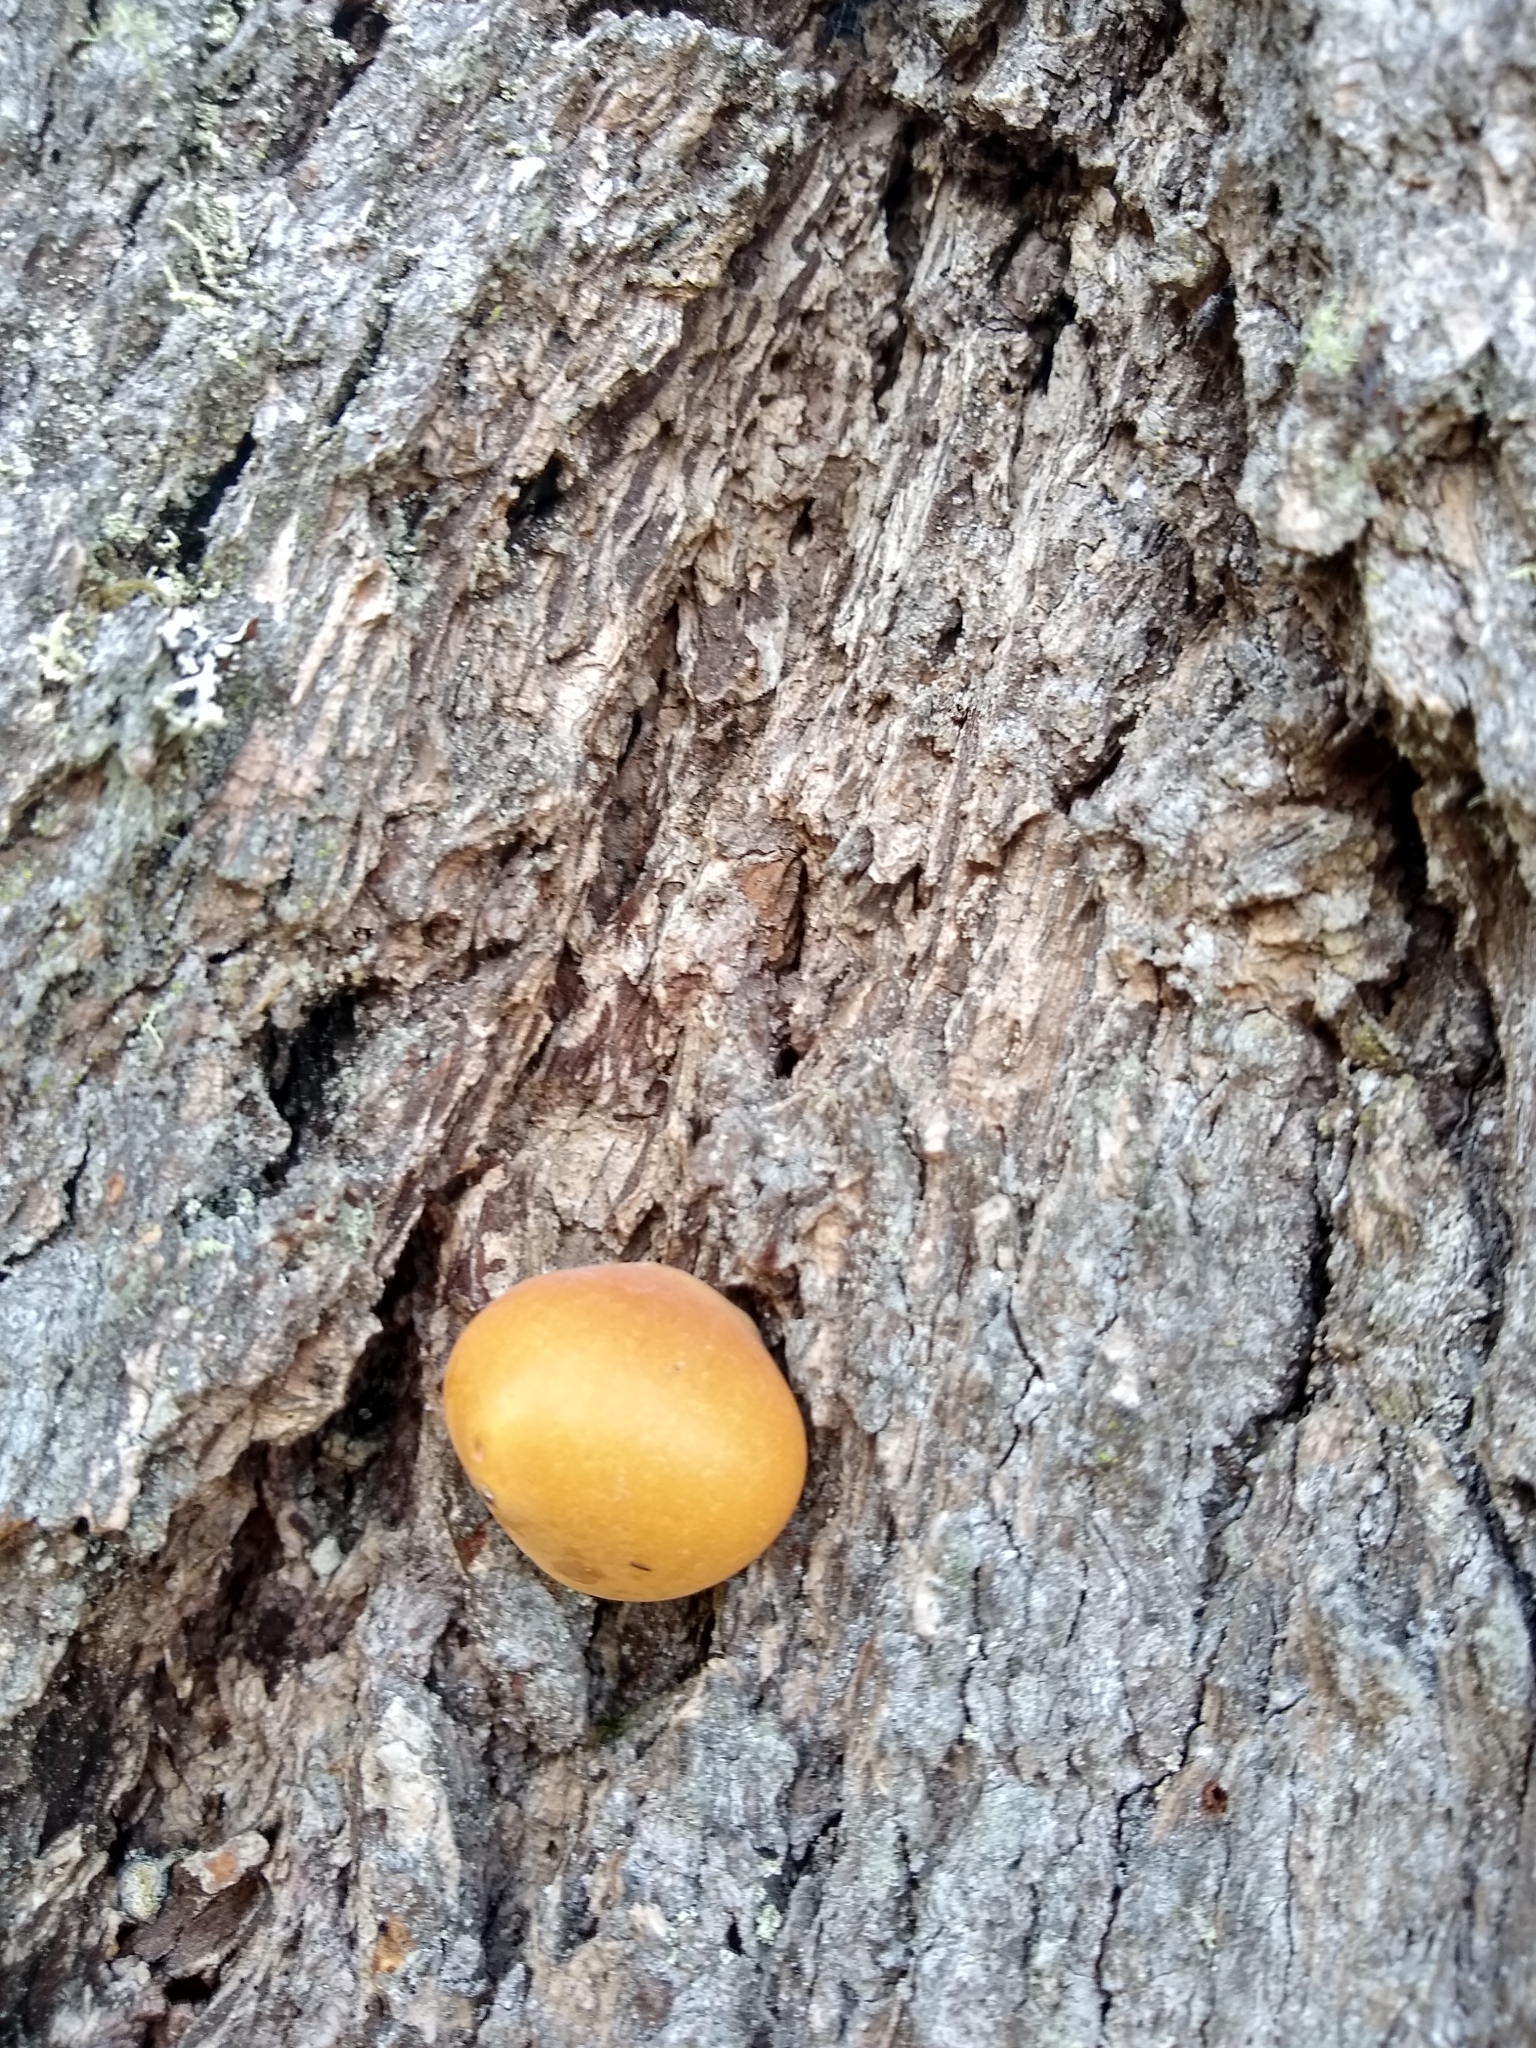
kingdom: Fungi
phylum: Basidiomycota
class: Agaricomycetes
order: Polyporales
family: Polyporaceae
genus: Cryptoporus
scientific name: Cryptoporus volvatus
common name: Veiled polypore
